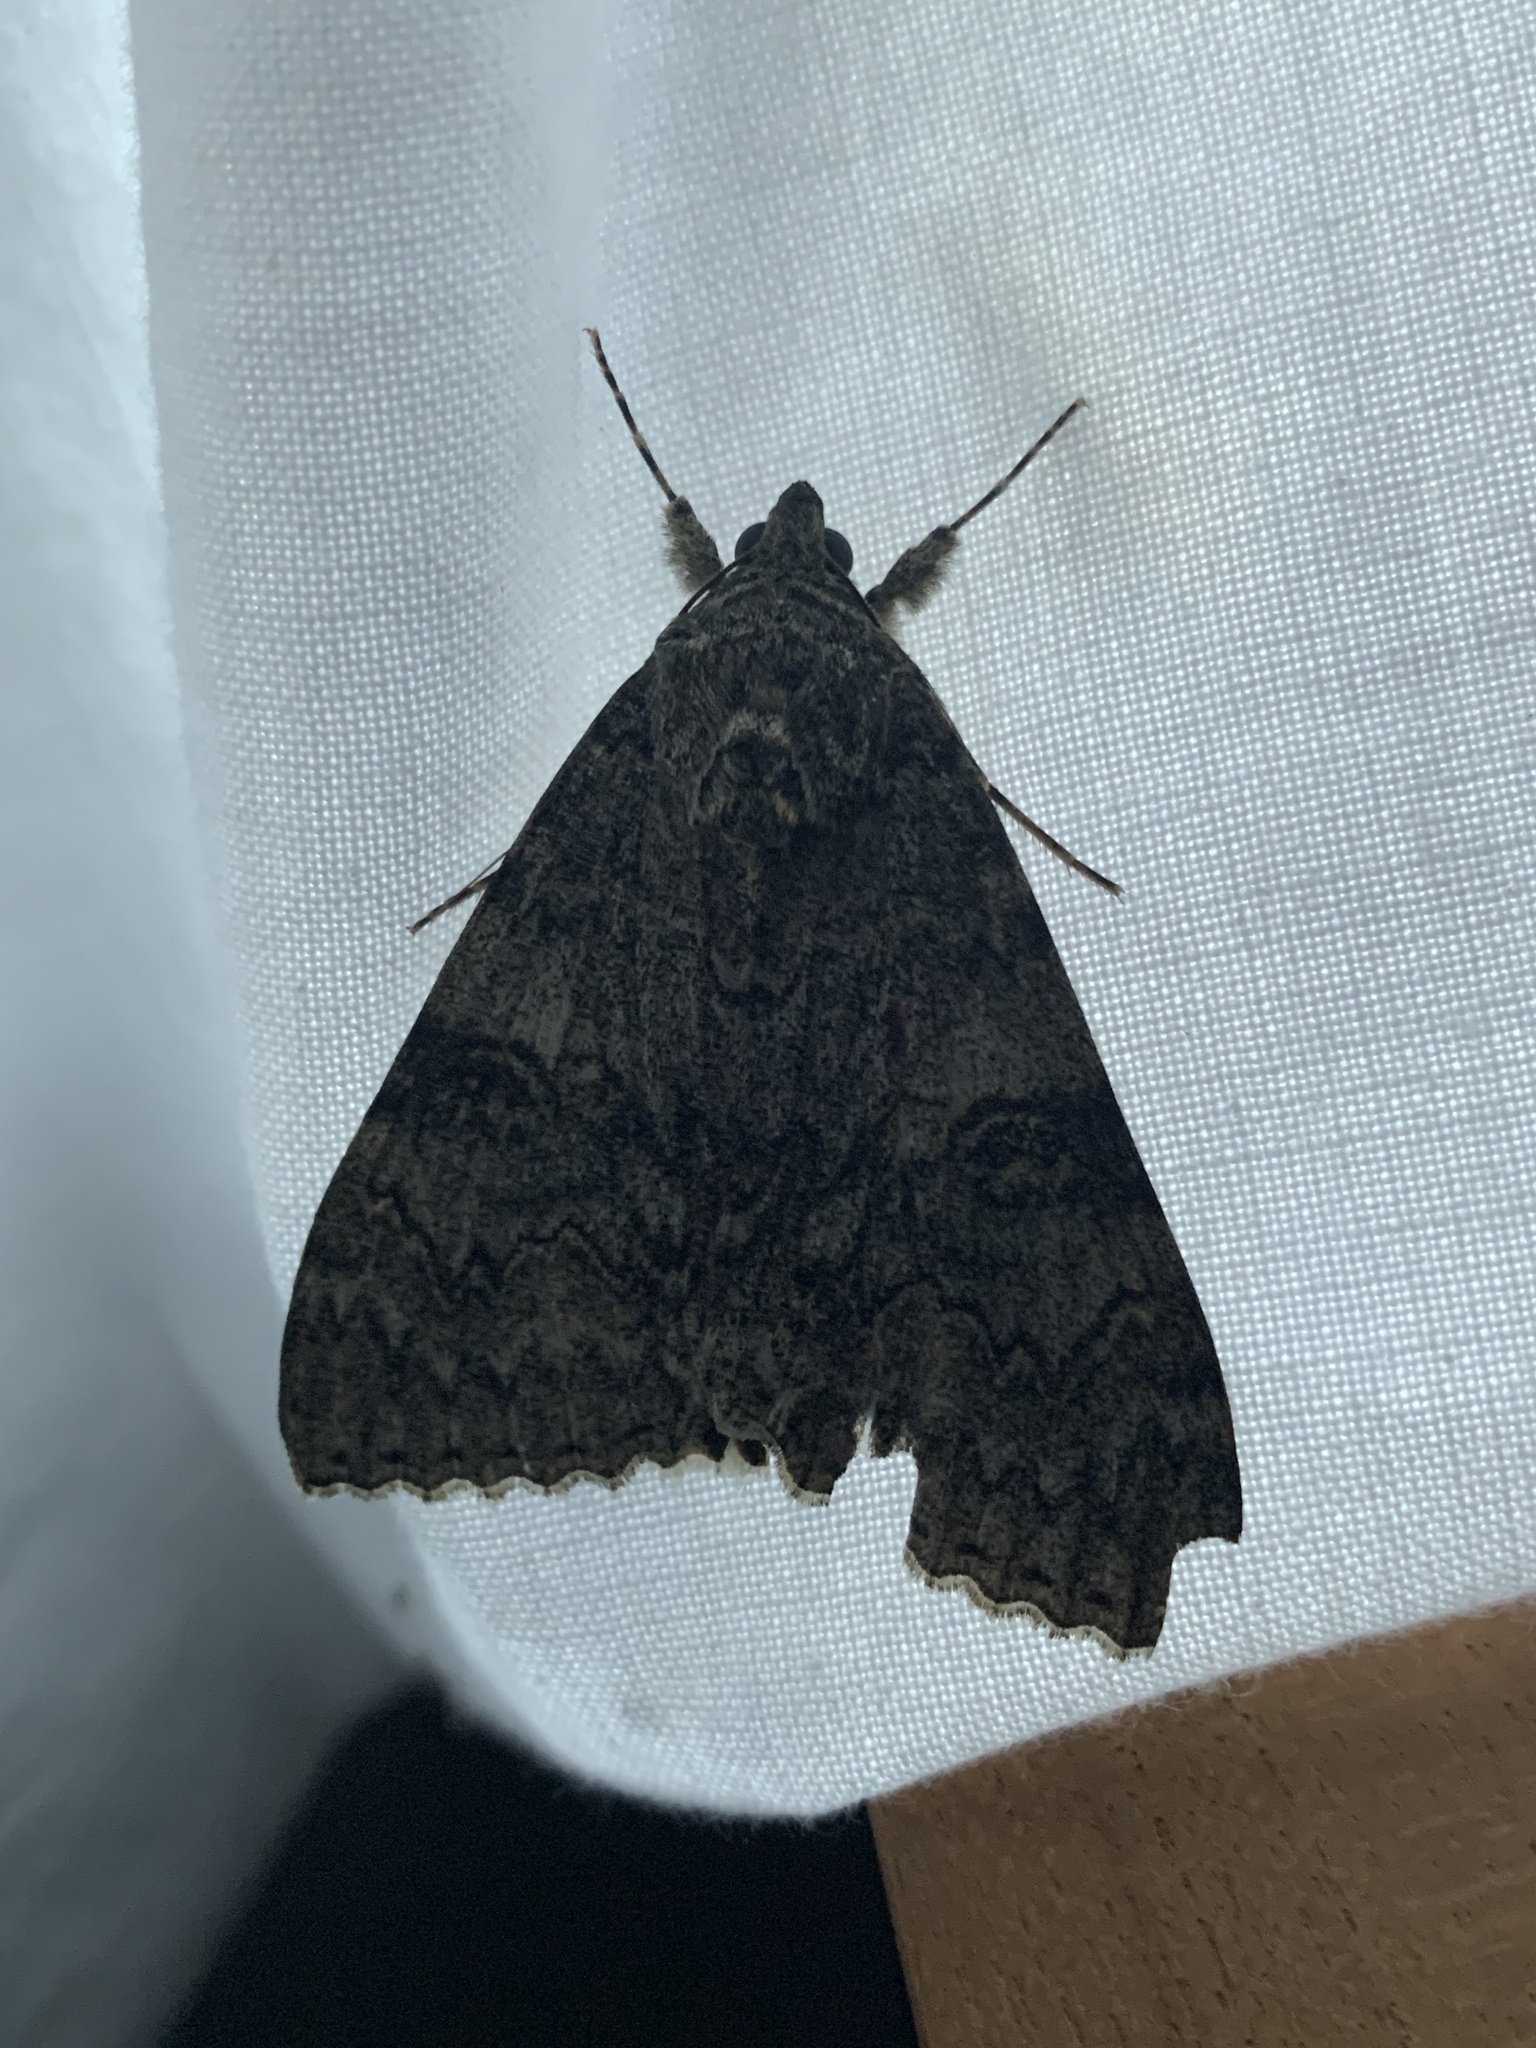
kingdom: Animalia
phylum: Arthropoda
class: Insecta
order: Lepidoptera
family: Erebidae
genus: Catocala
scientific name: Catocala nupta
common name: Red underwing
